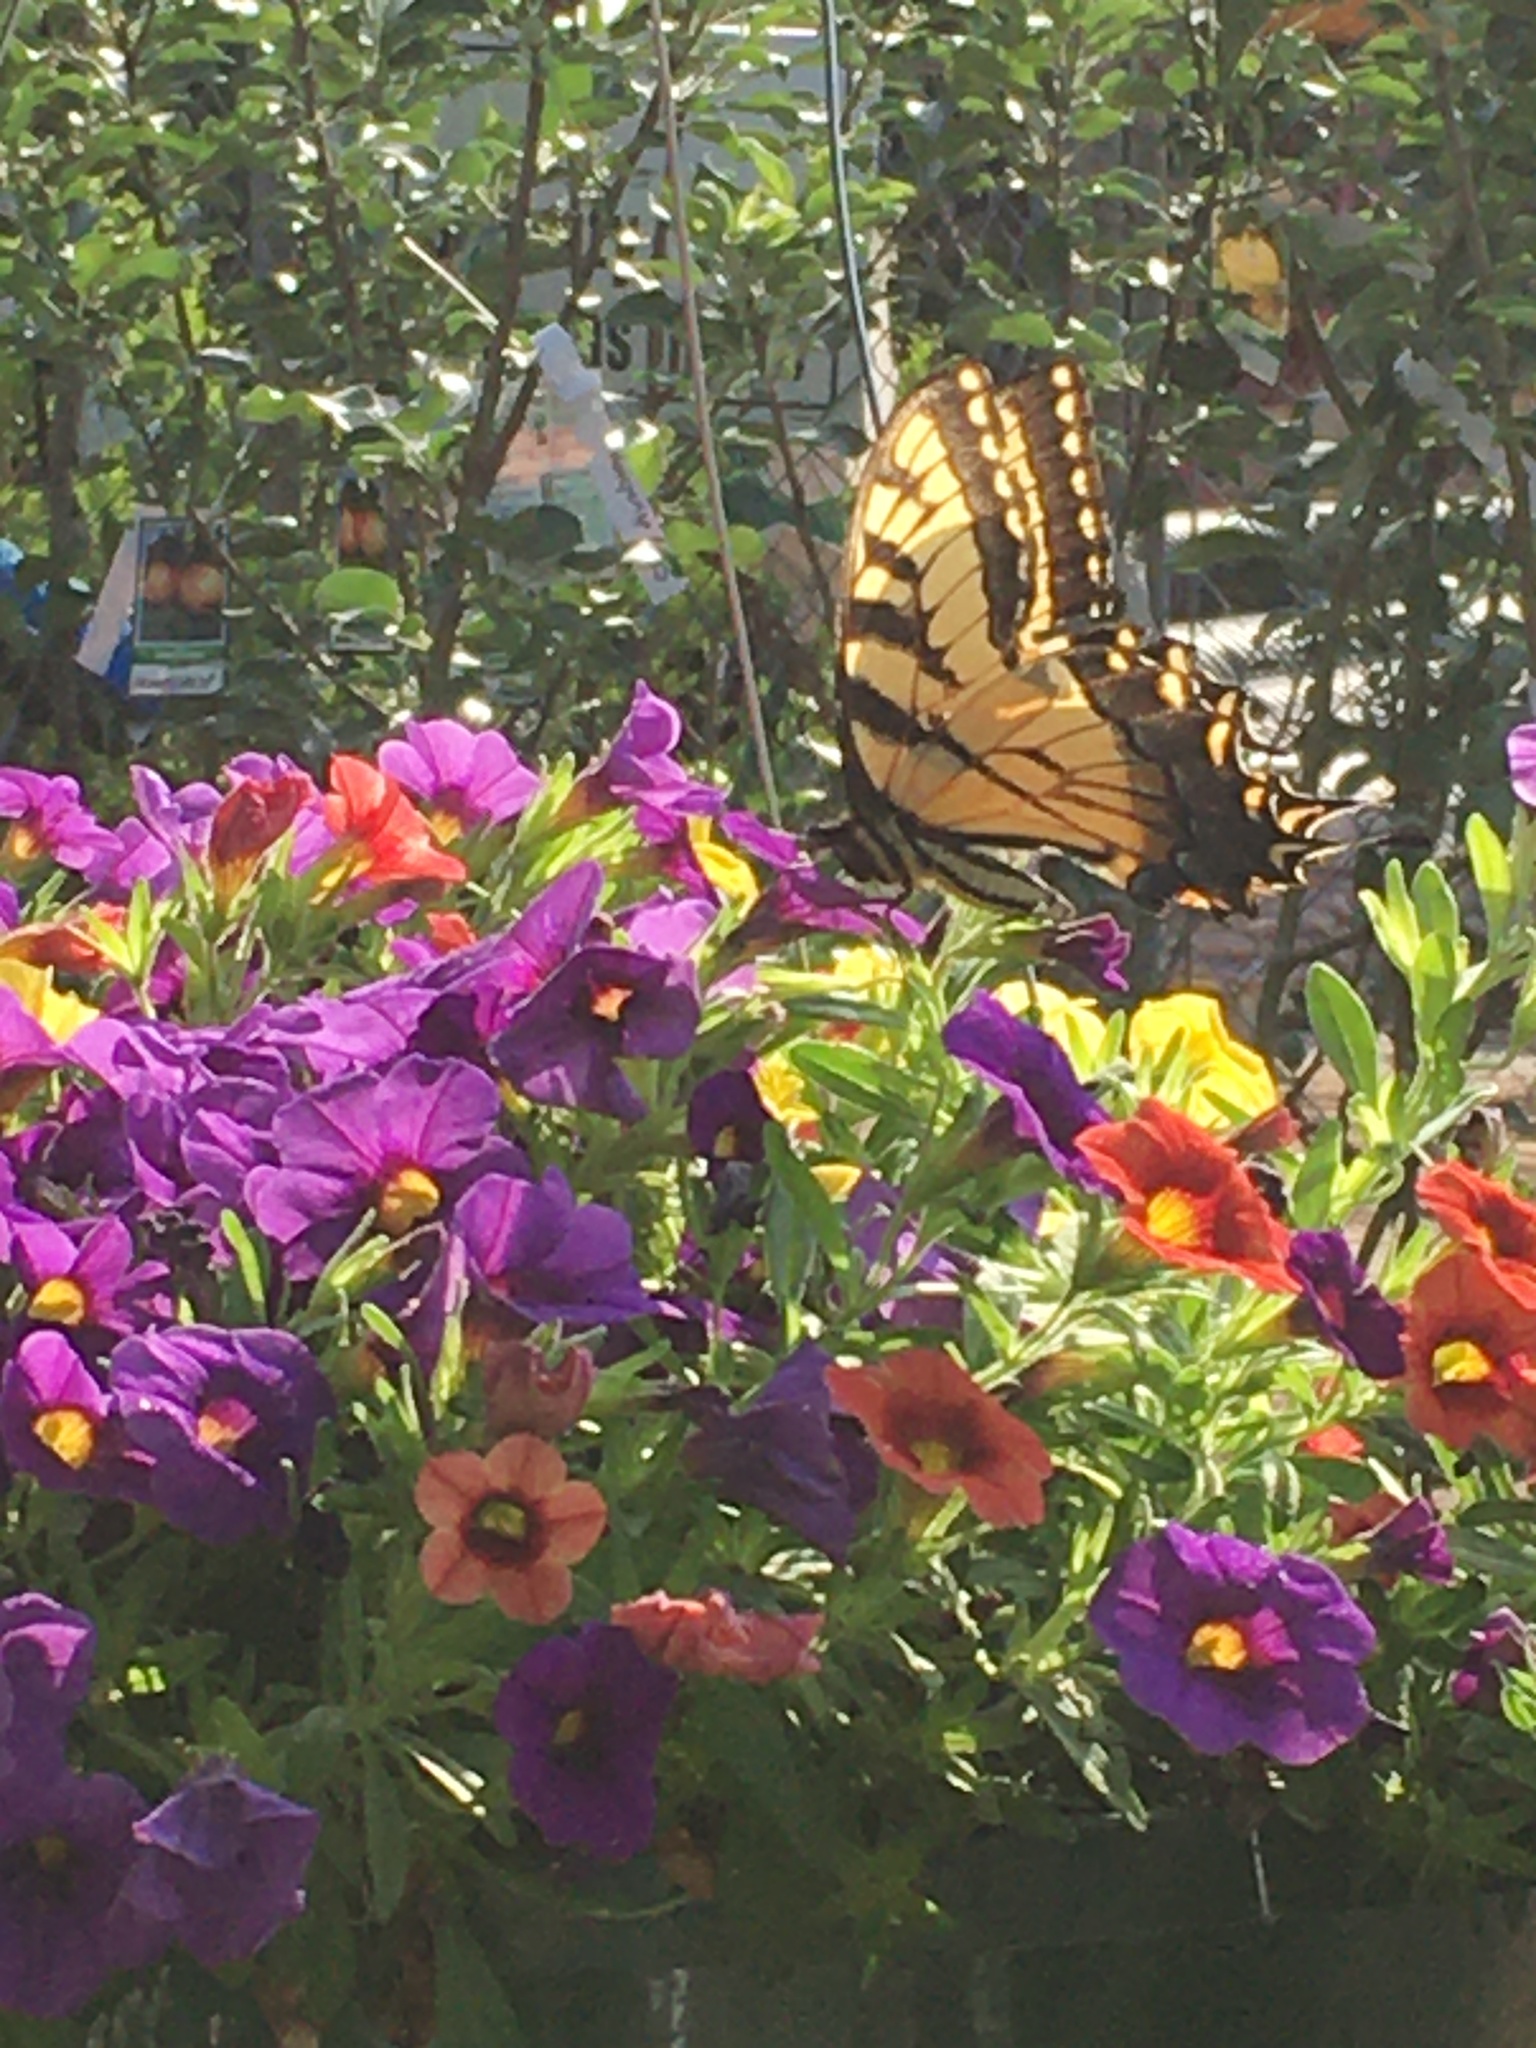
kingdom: Animalia
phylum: Arthropoda
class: Insecta
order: Lepidoptera
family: Papilionidae
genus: Papilio
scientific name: Papilio glaucus
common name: Tiger swallowtail
